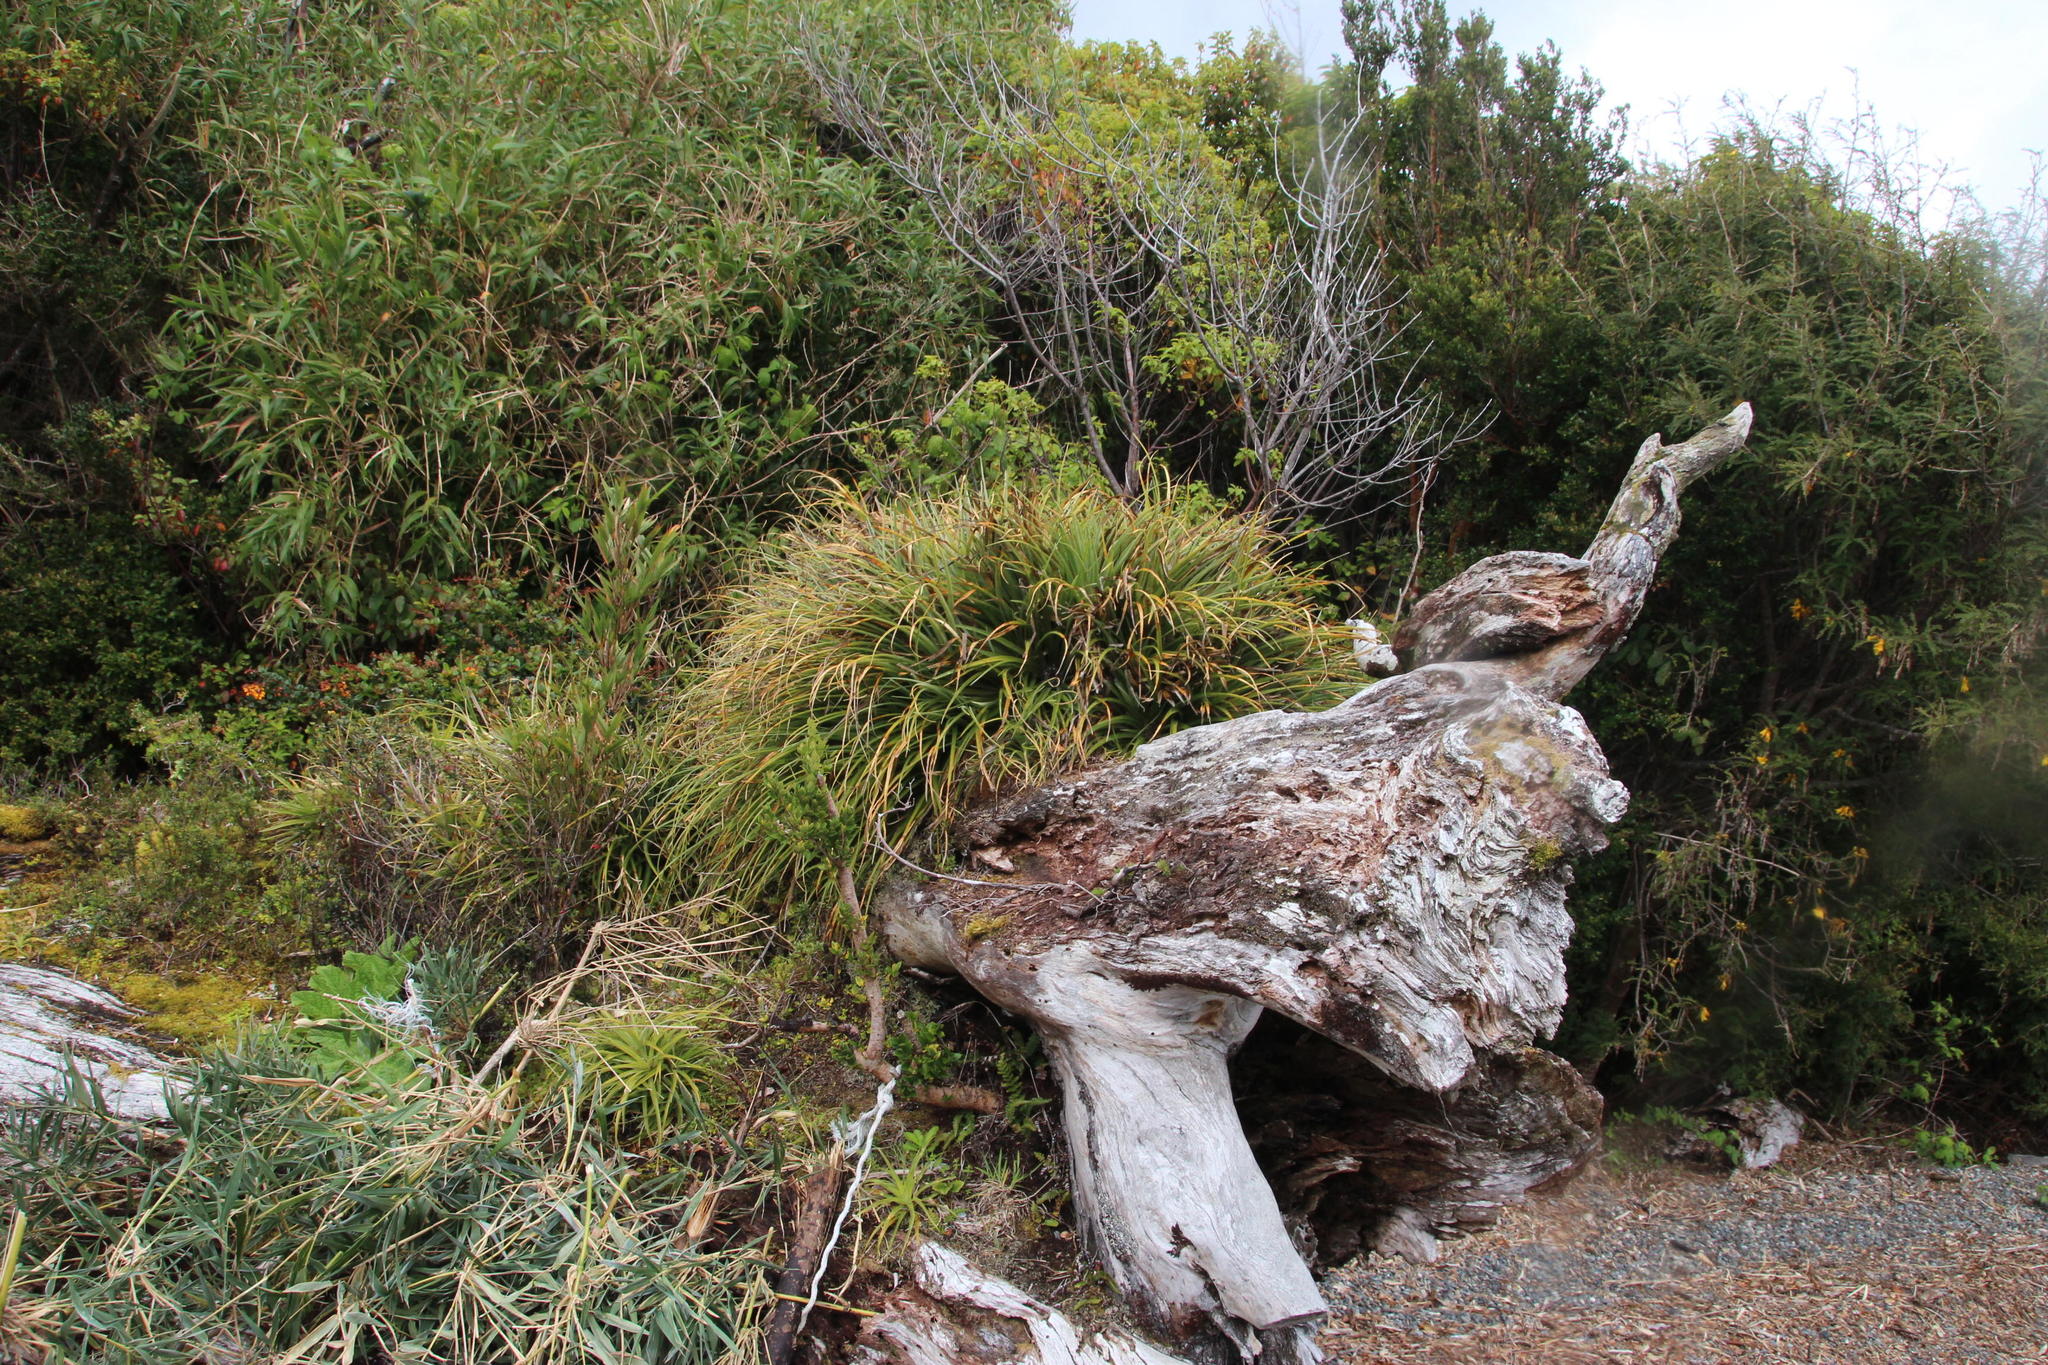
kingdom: Plantae
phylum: Tracheophyta
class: Liliopsida
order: Poales
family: Bromeliaceae
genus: Fascicularia
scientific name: Fascicularia bicolor
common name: Rhodostachys
